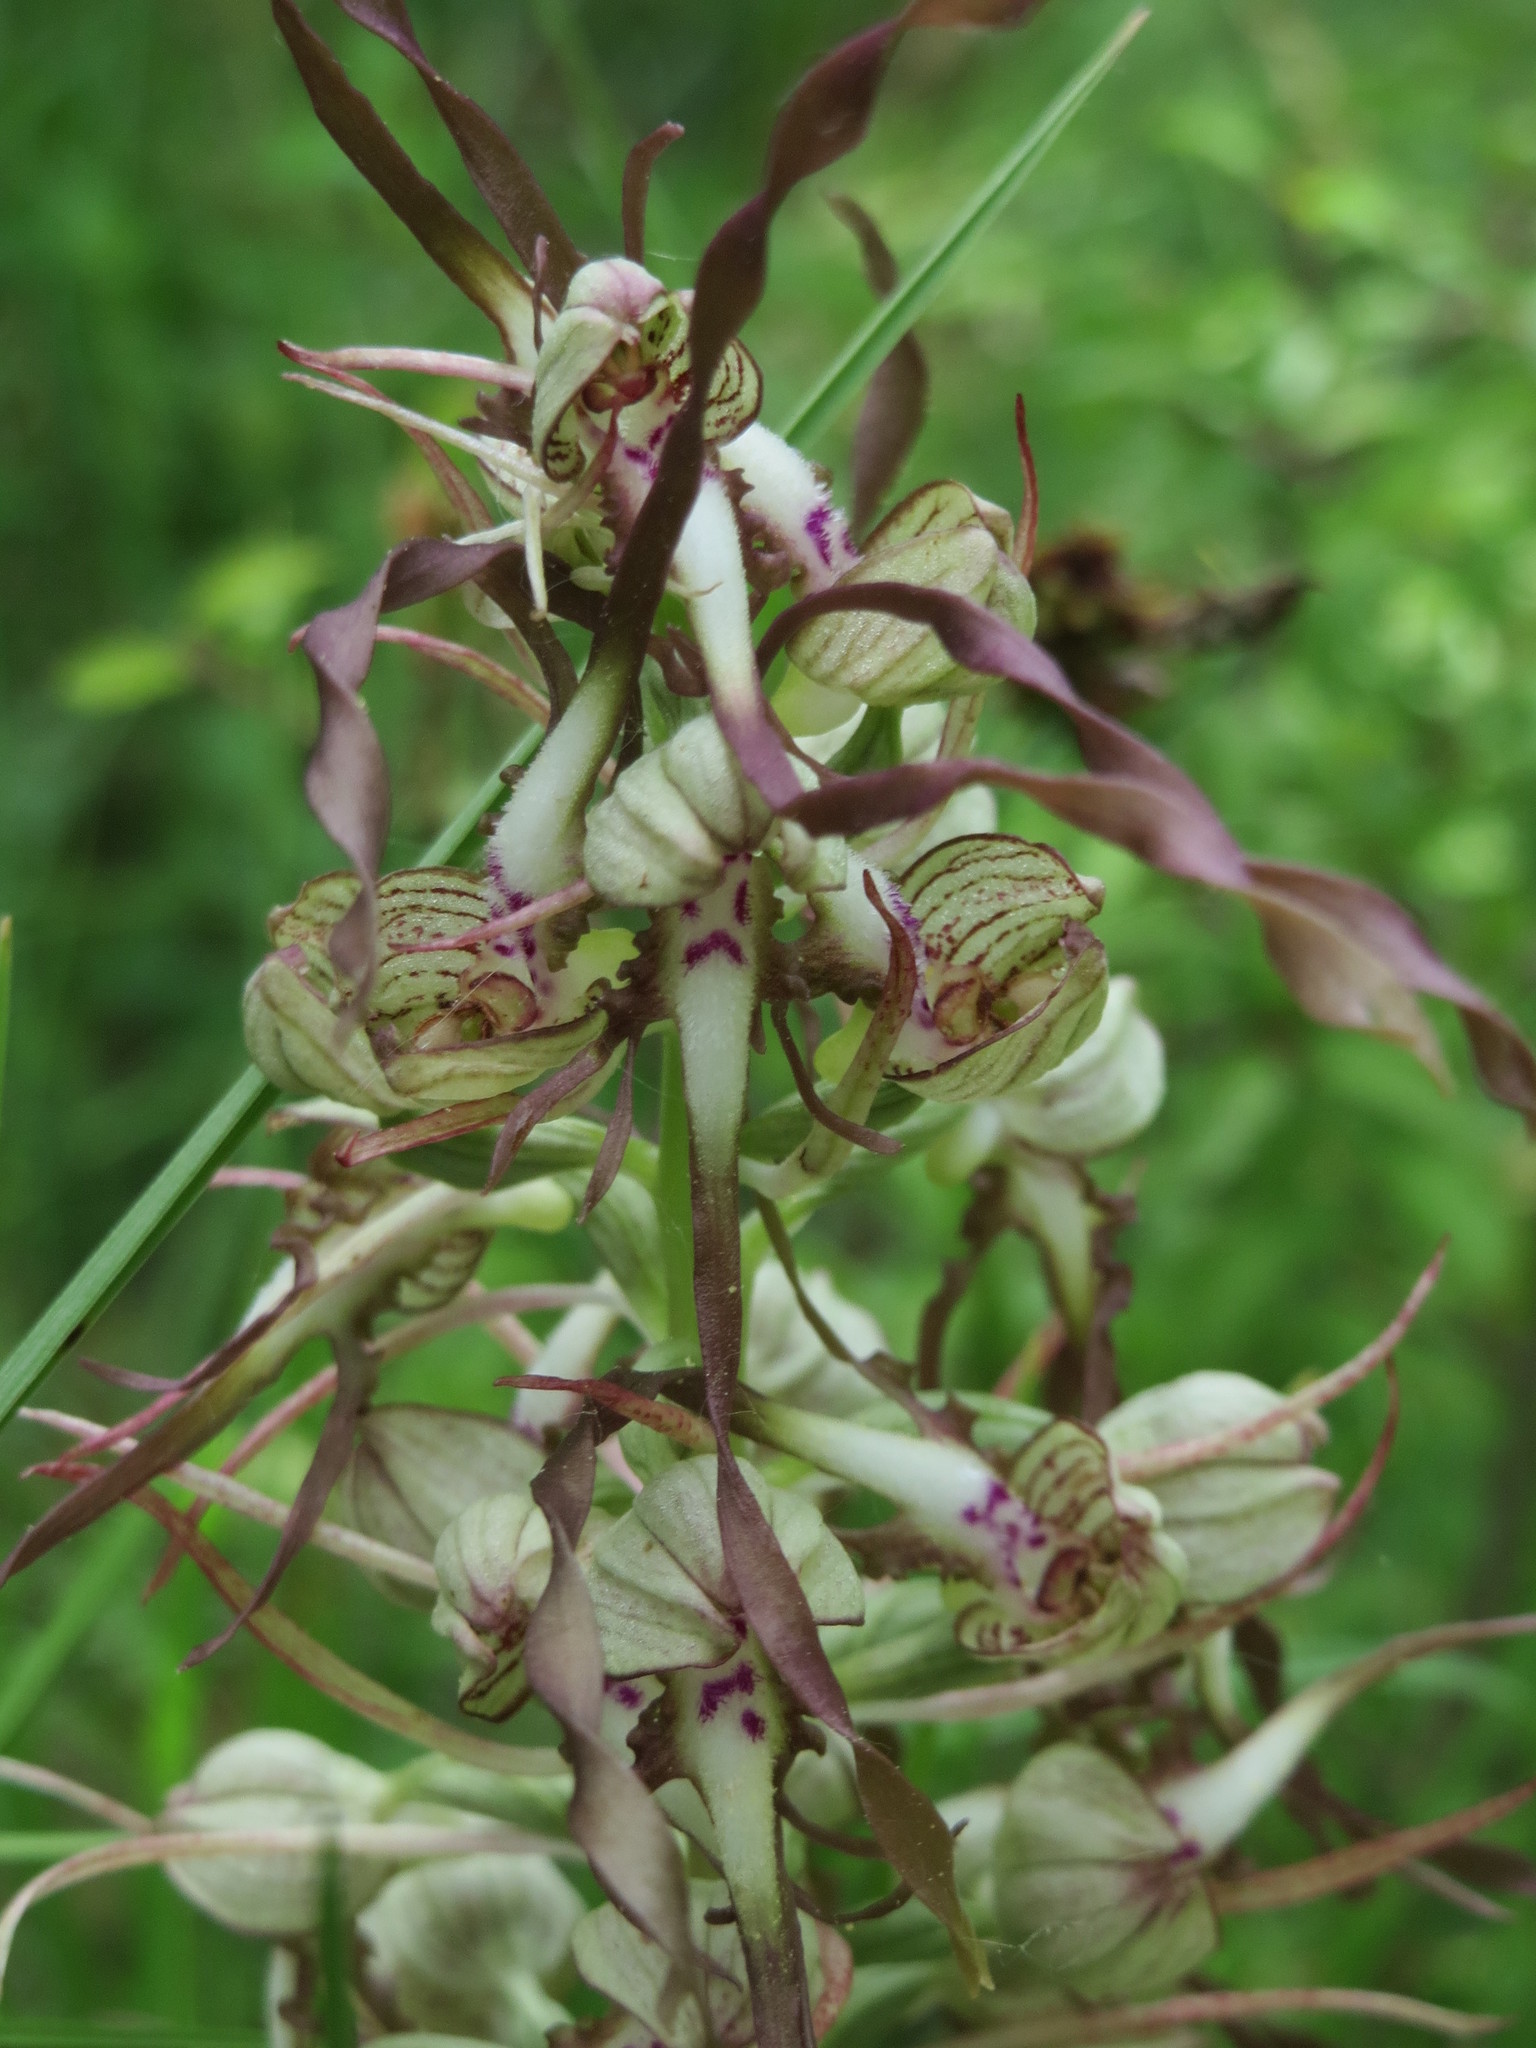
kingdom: Plantae
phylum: Tracheophyta
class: Liliopsida
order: Asparagales
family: Orchidaceae
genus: Himantoglossum
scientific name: Himantoglossum hircinum
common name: Lizard orchid
